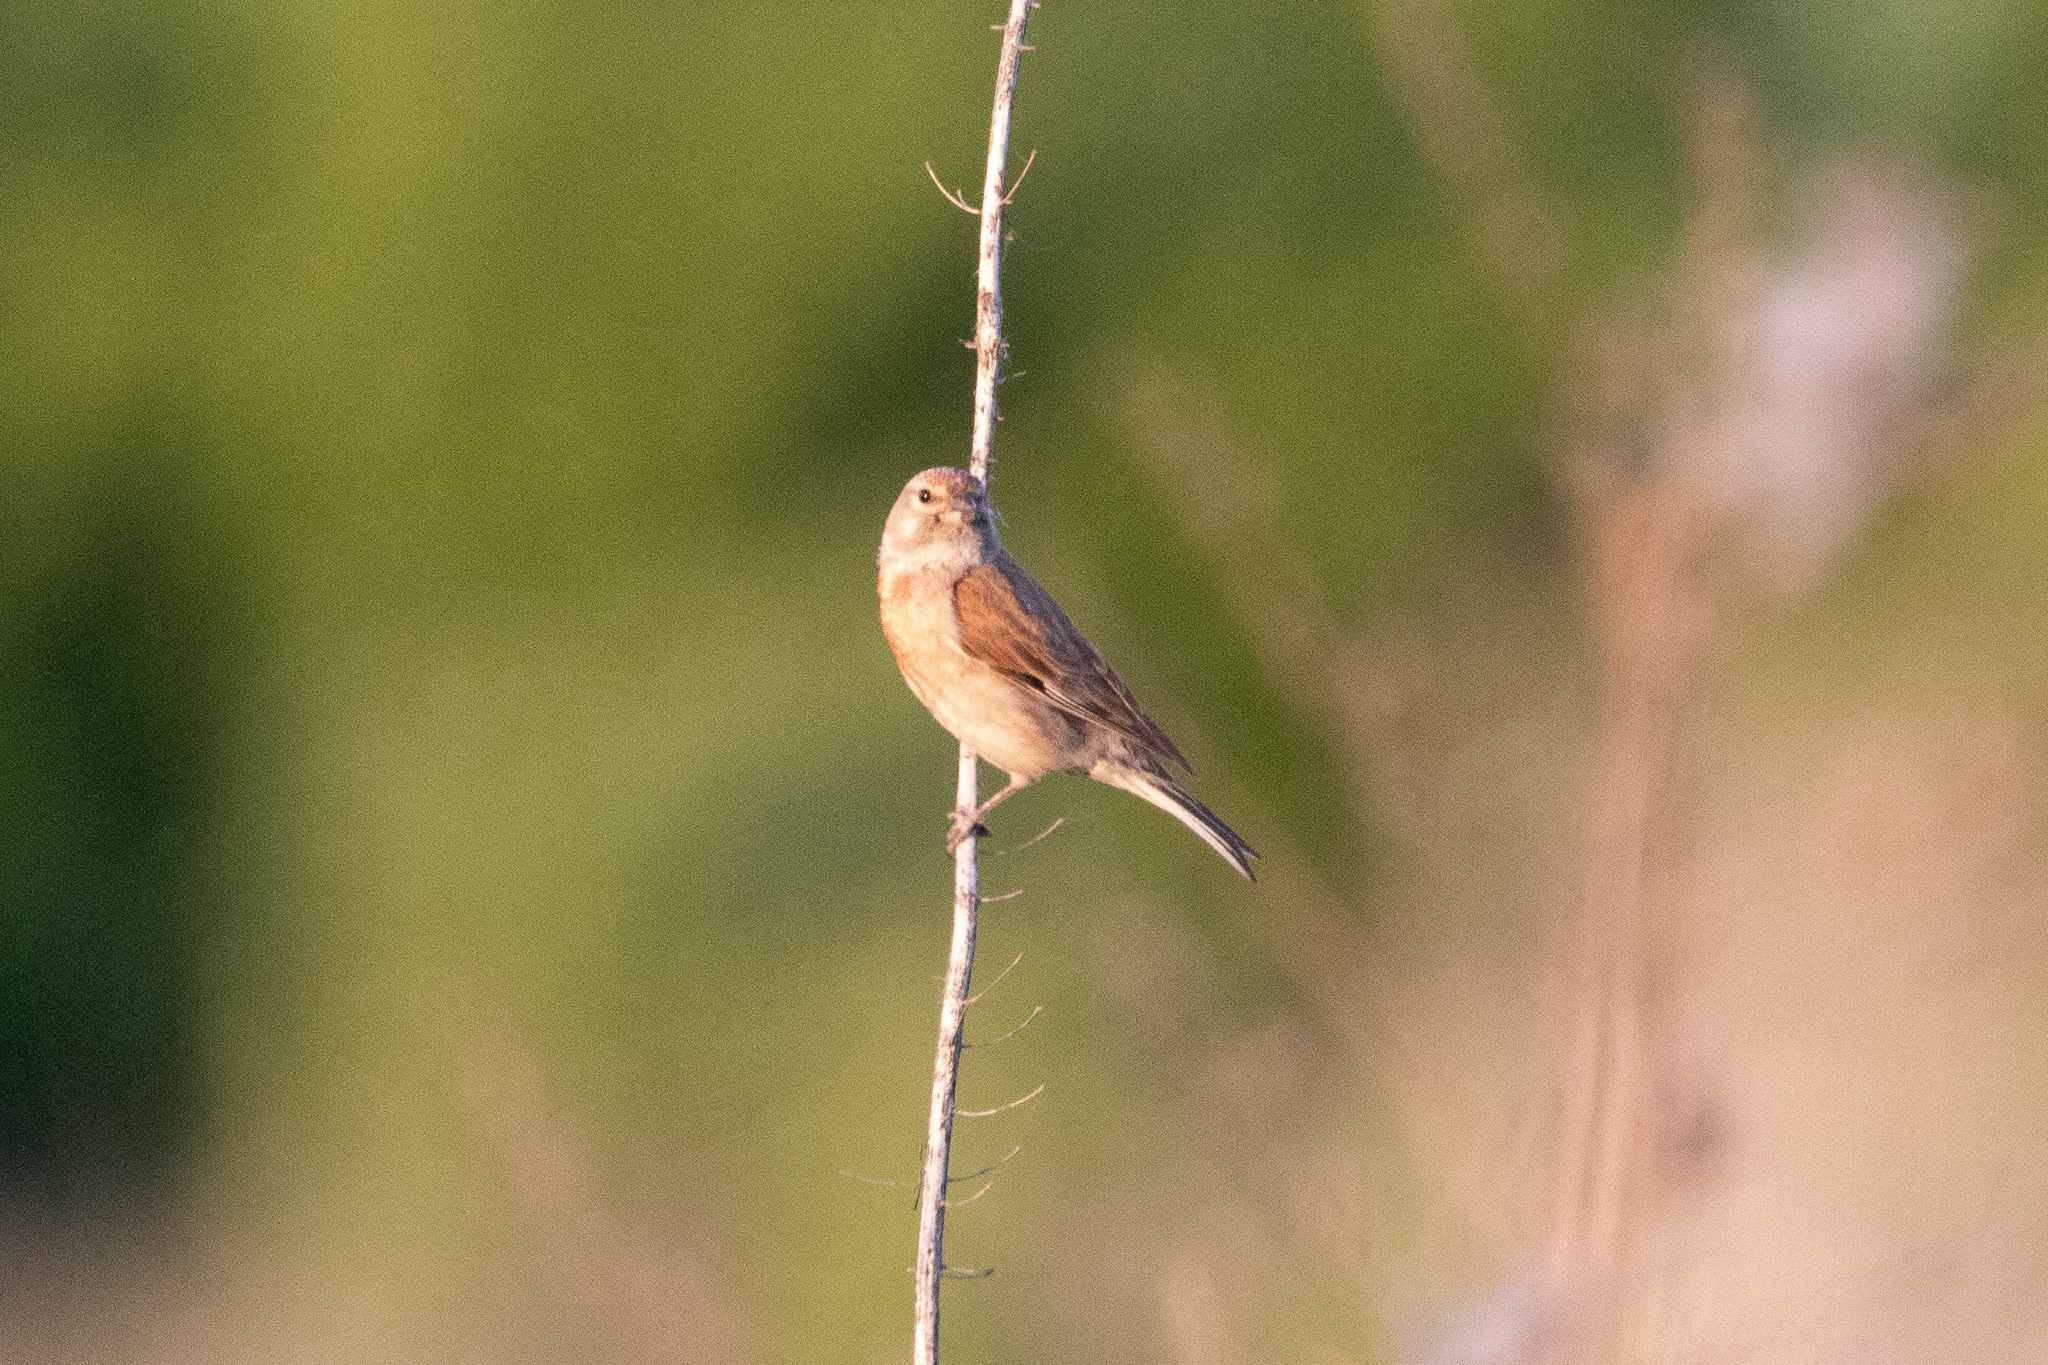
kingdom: Animalia
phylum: Chordata
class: Aves
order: Passeriformes
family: Fringillidae
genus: Linaria
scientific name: Linaria cannabina
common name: Common linnet
